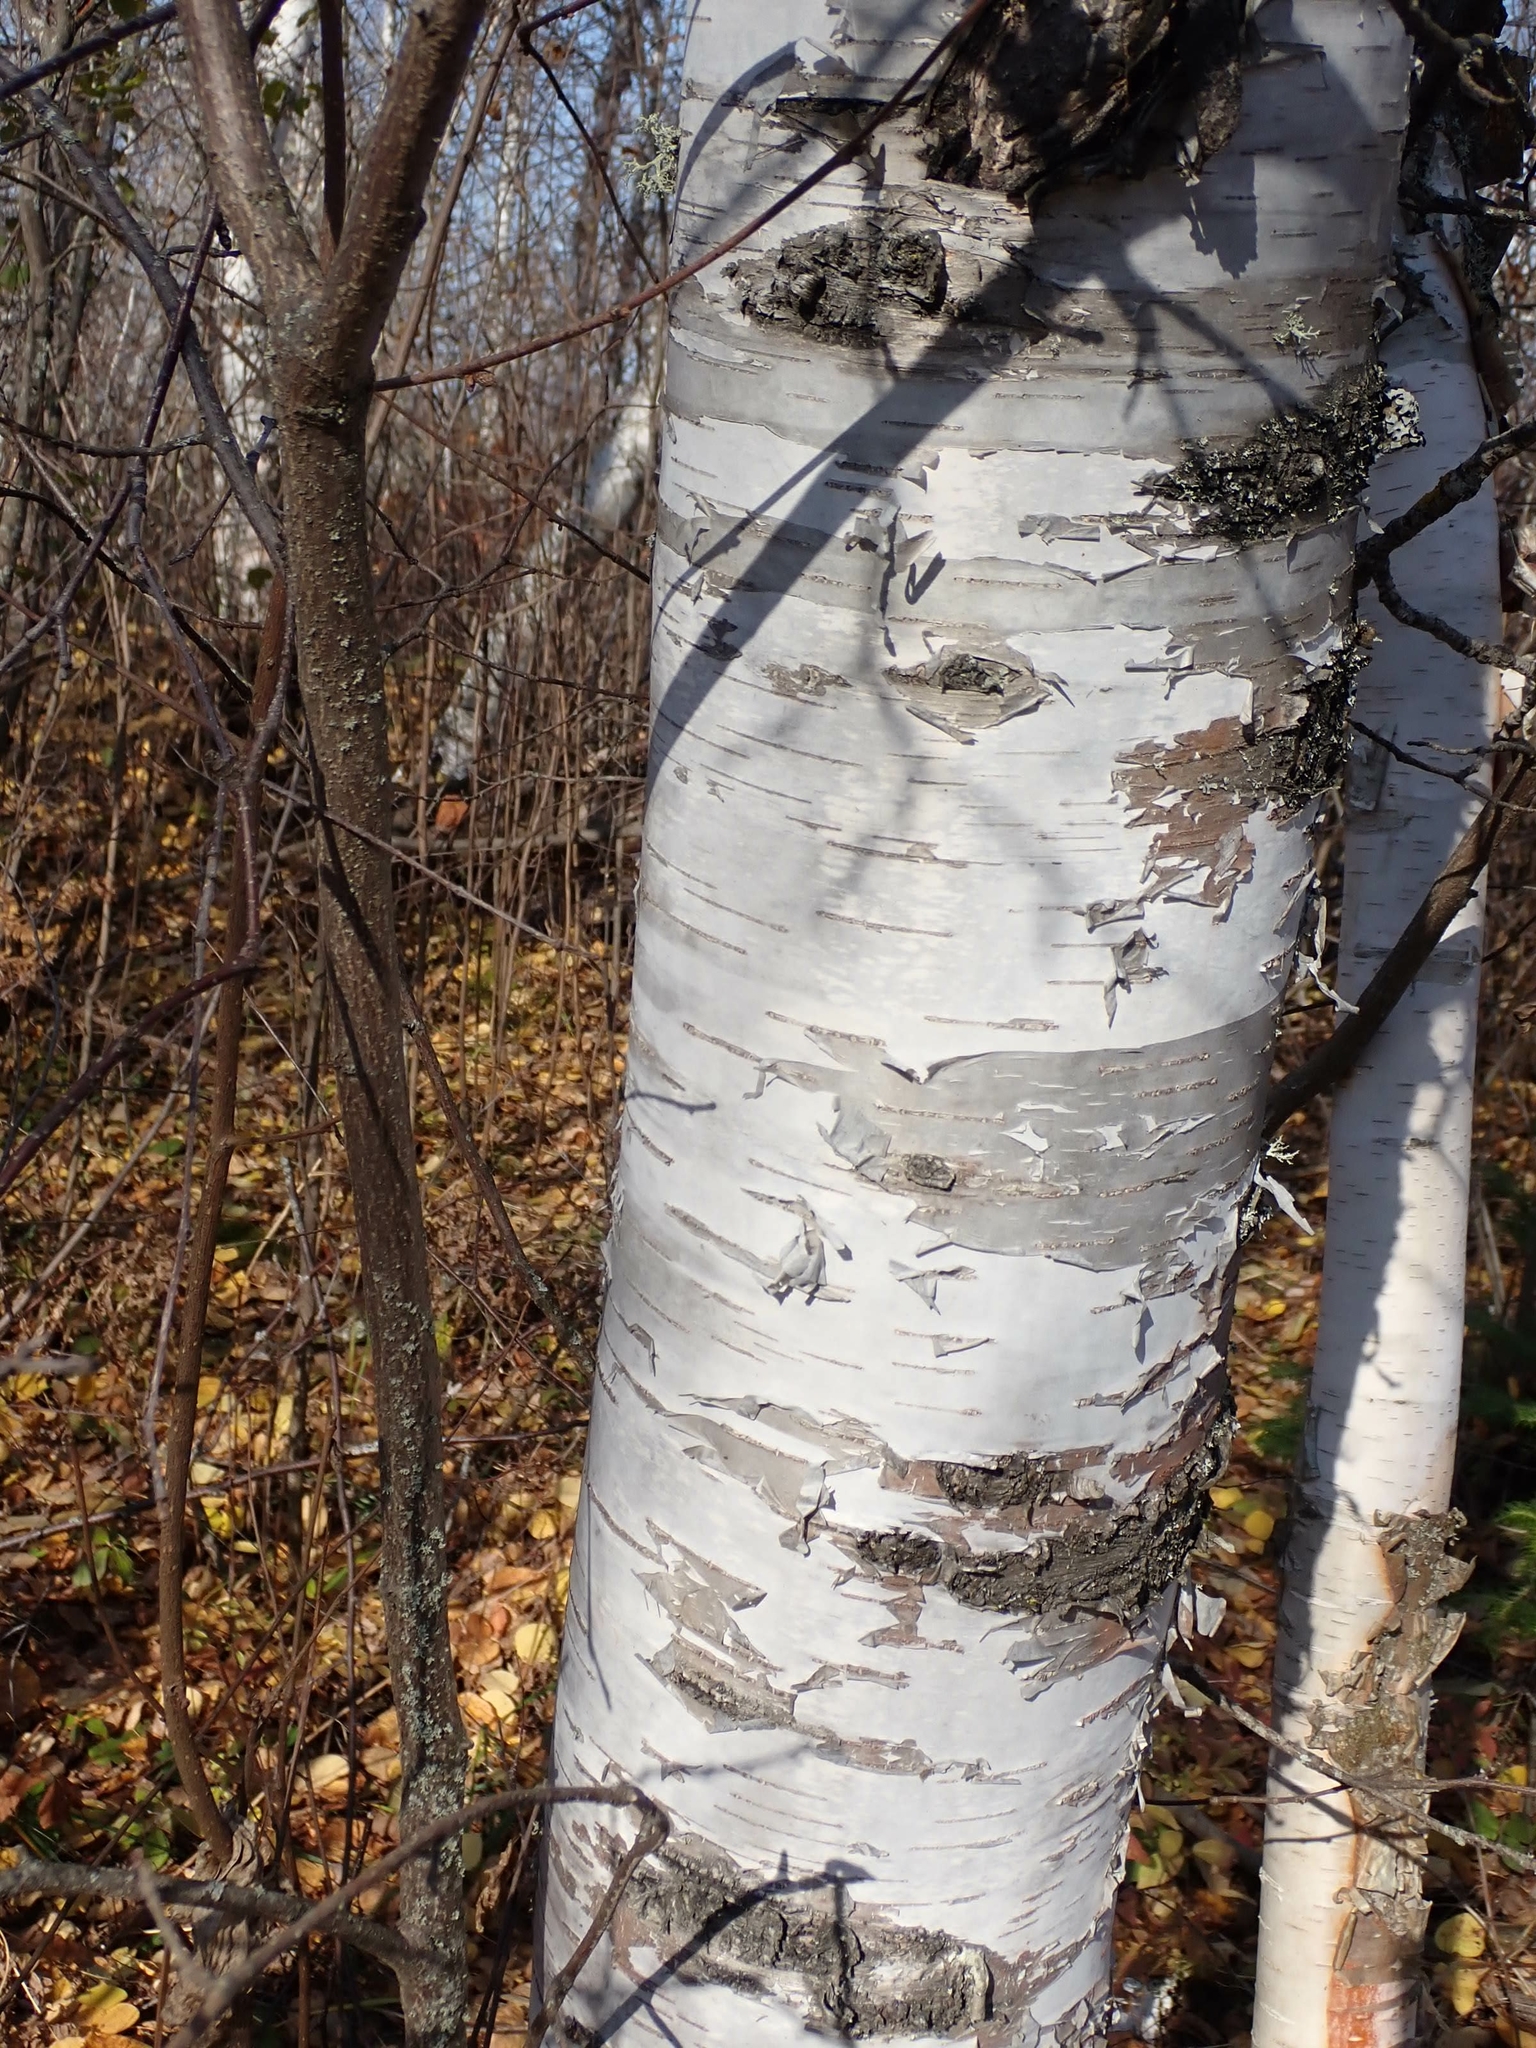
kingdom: Plantae
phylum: Tracheophyta
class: Magnoliopsida
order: Fagales
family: Betulaceae
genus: Betula
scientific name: Betula papyrifera
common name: Paper birch
